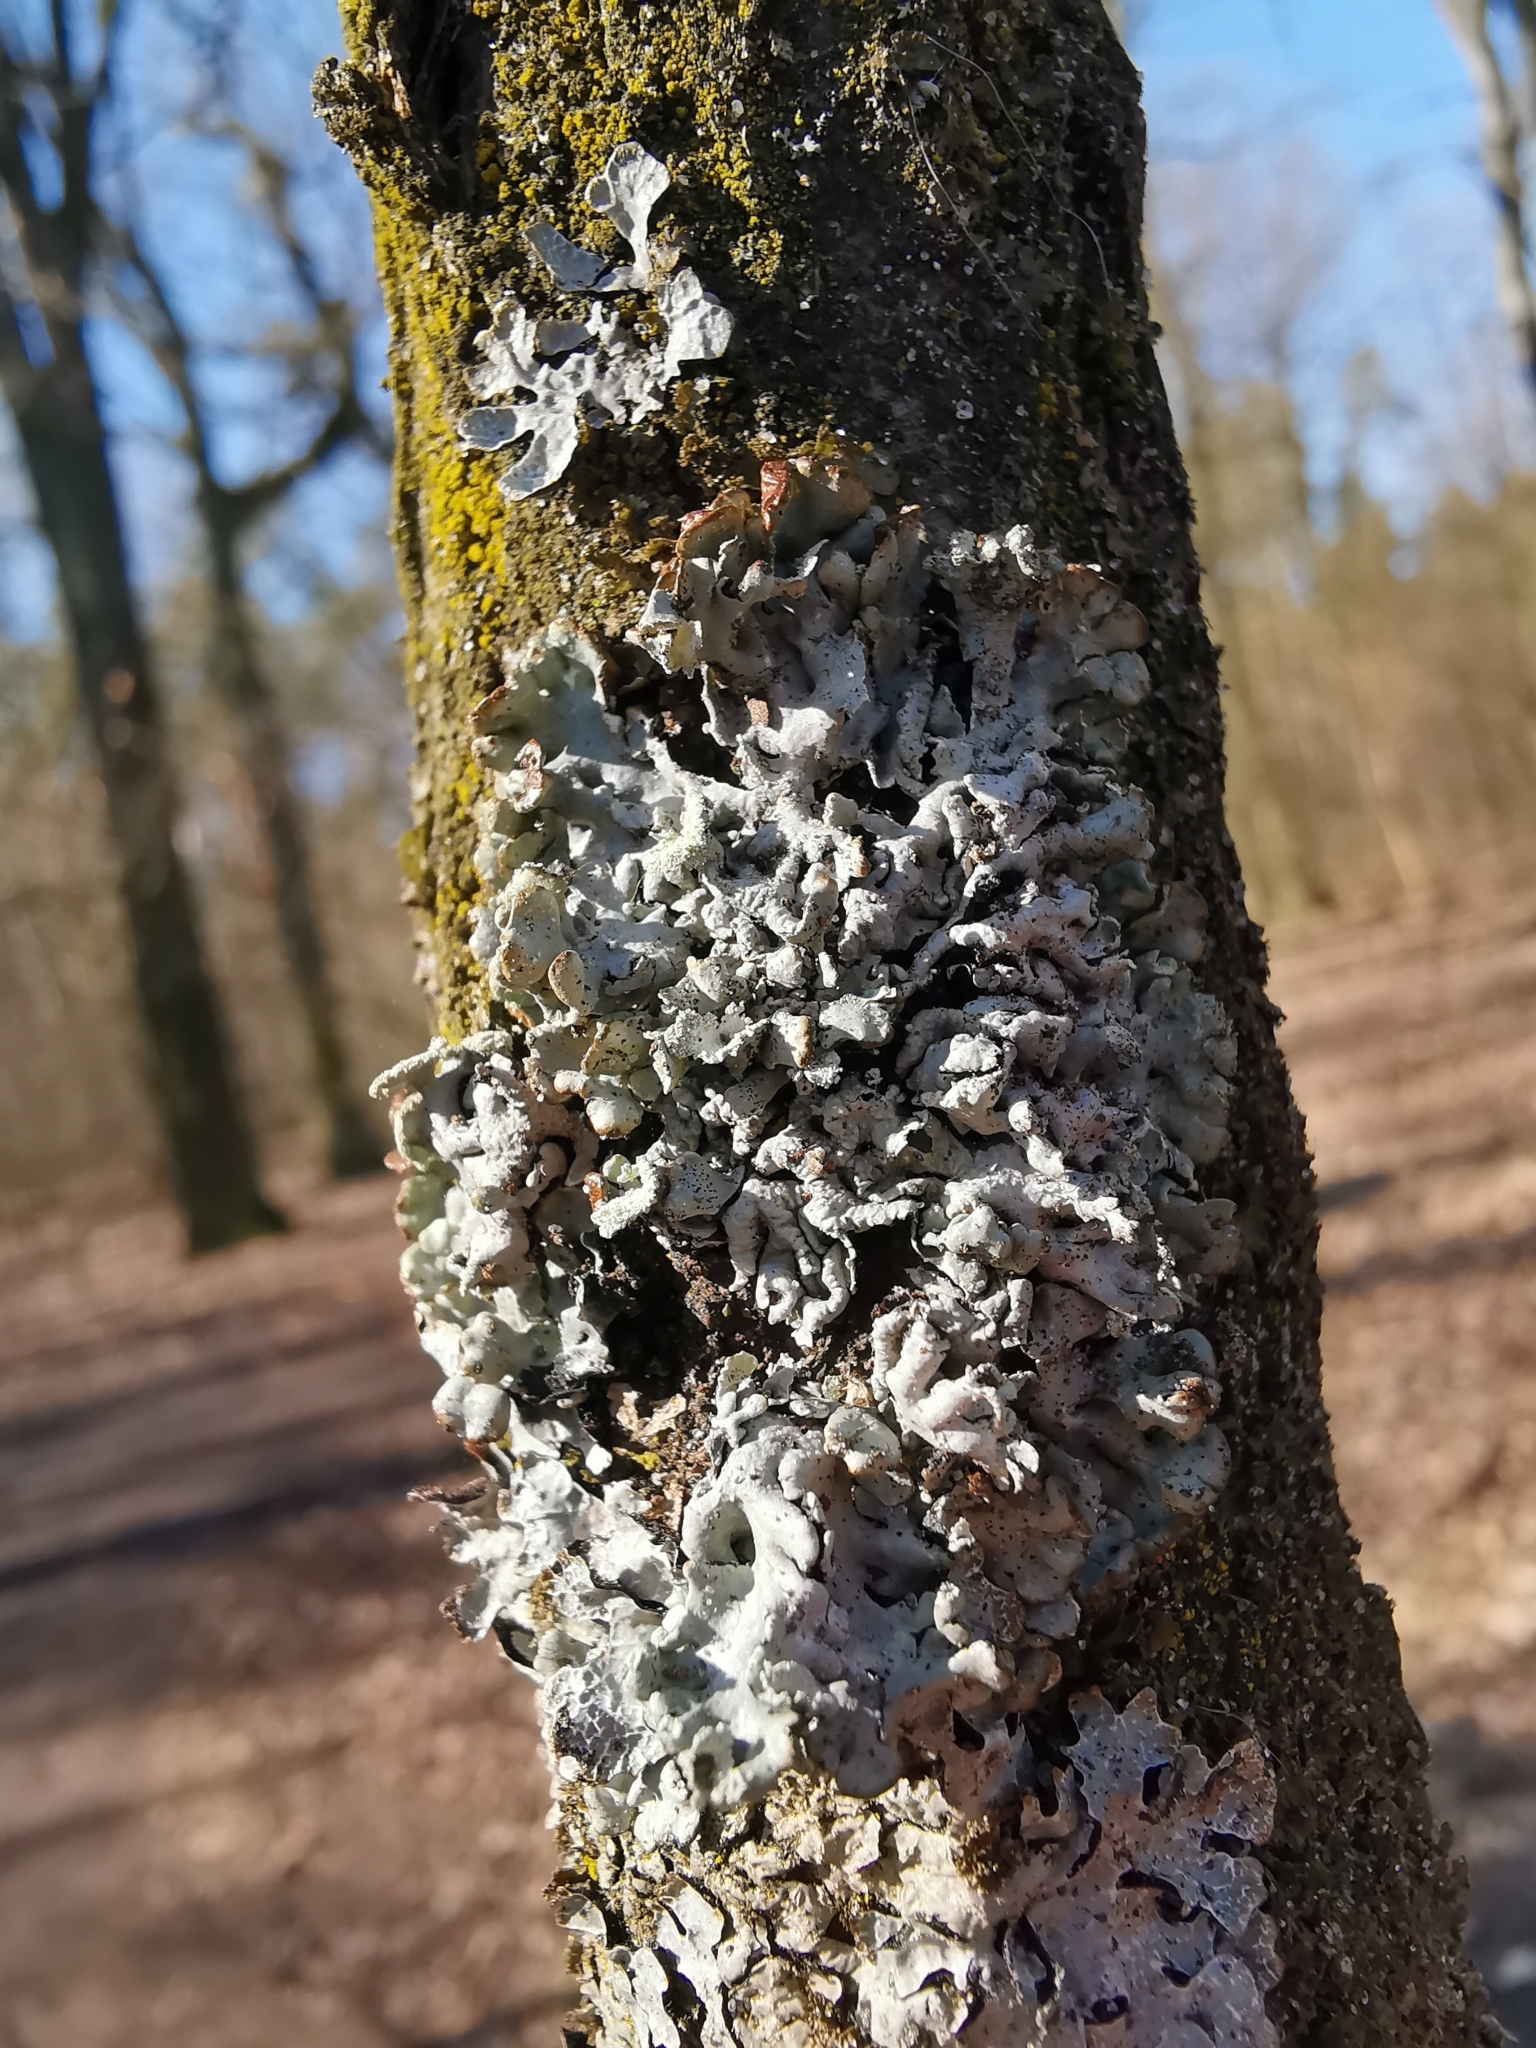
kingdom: Fungi
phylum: Ascomycota
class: Lecanoromycetes
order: Lecanorales
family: Parmeliaceae
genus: Hypogymnia
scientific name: Hypogymnia physodes
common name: Dark crottle
